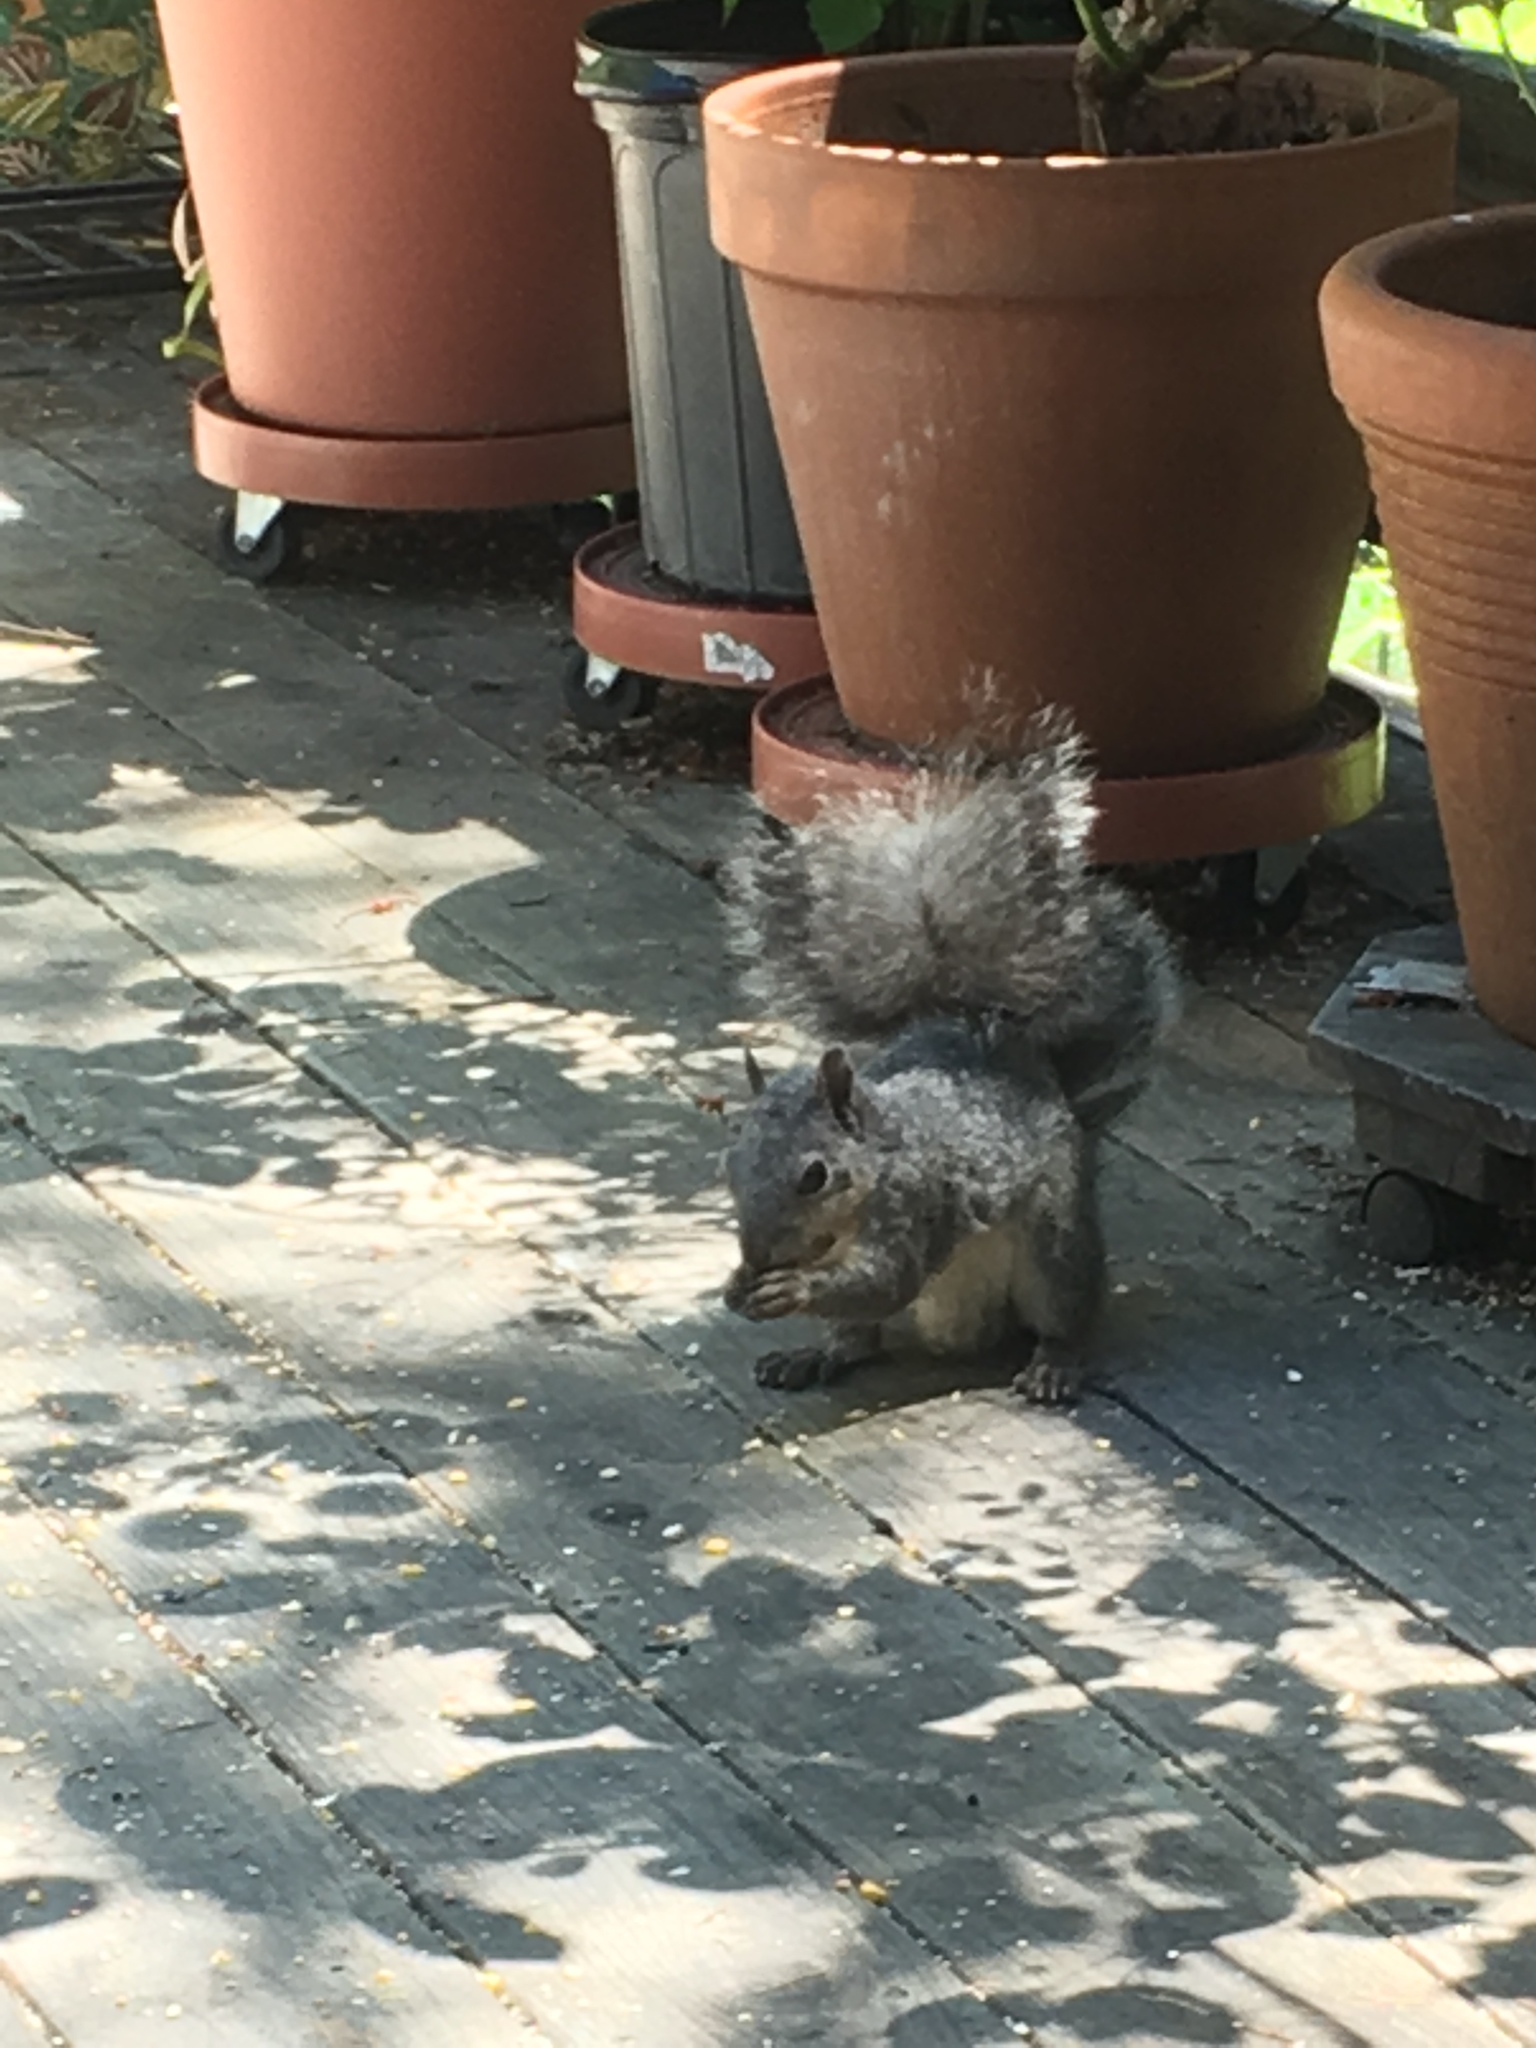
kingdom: Animalia
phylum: Chordata
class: Mammalia
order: Rodentia
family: Sciuridae
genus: Sciurus
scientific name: Sciurus griseus
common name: Western gray squirrel
